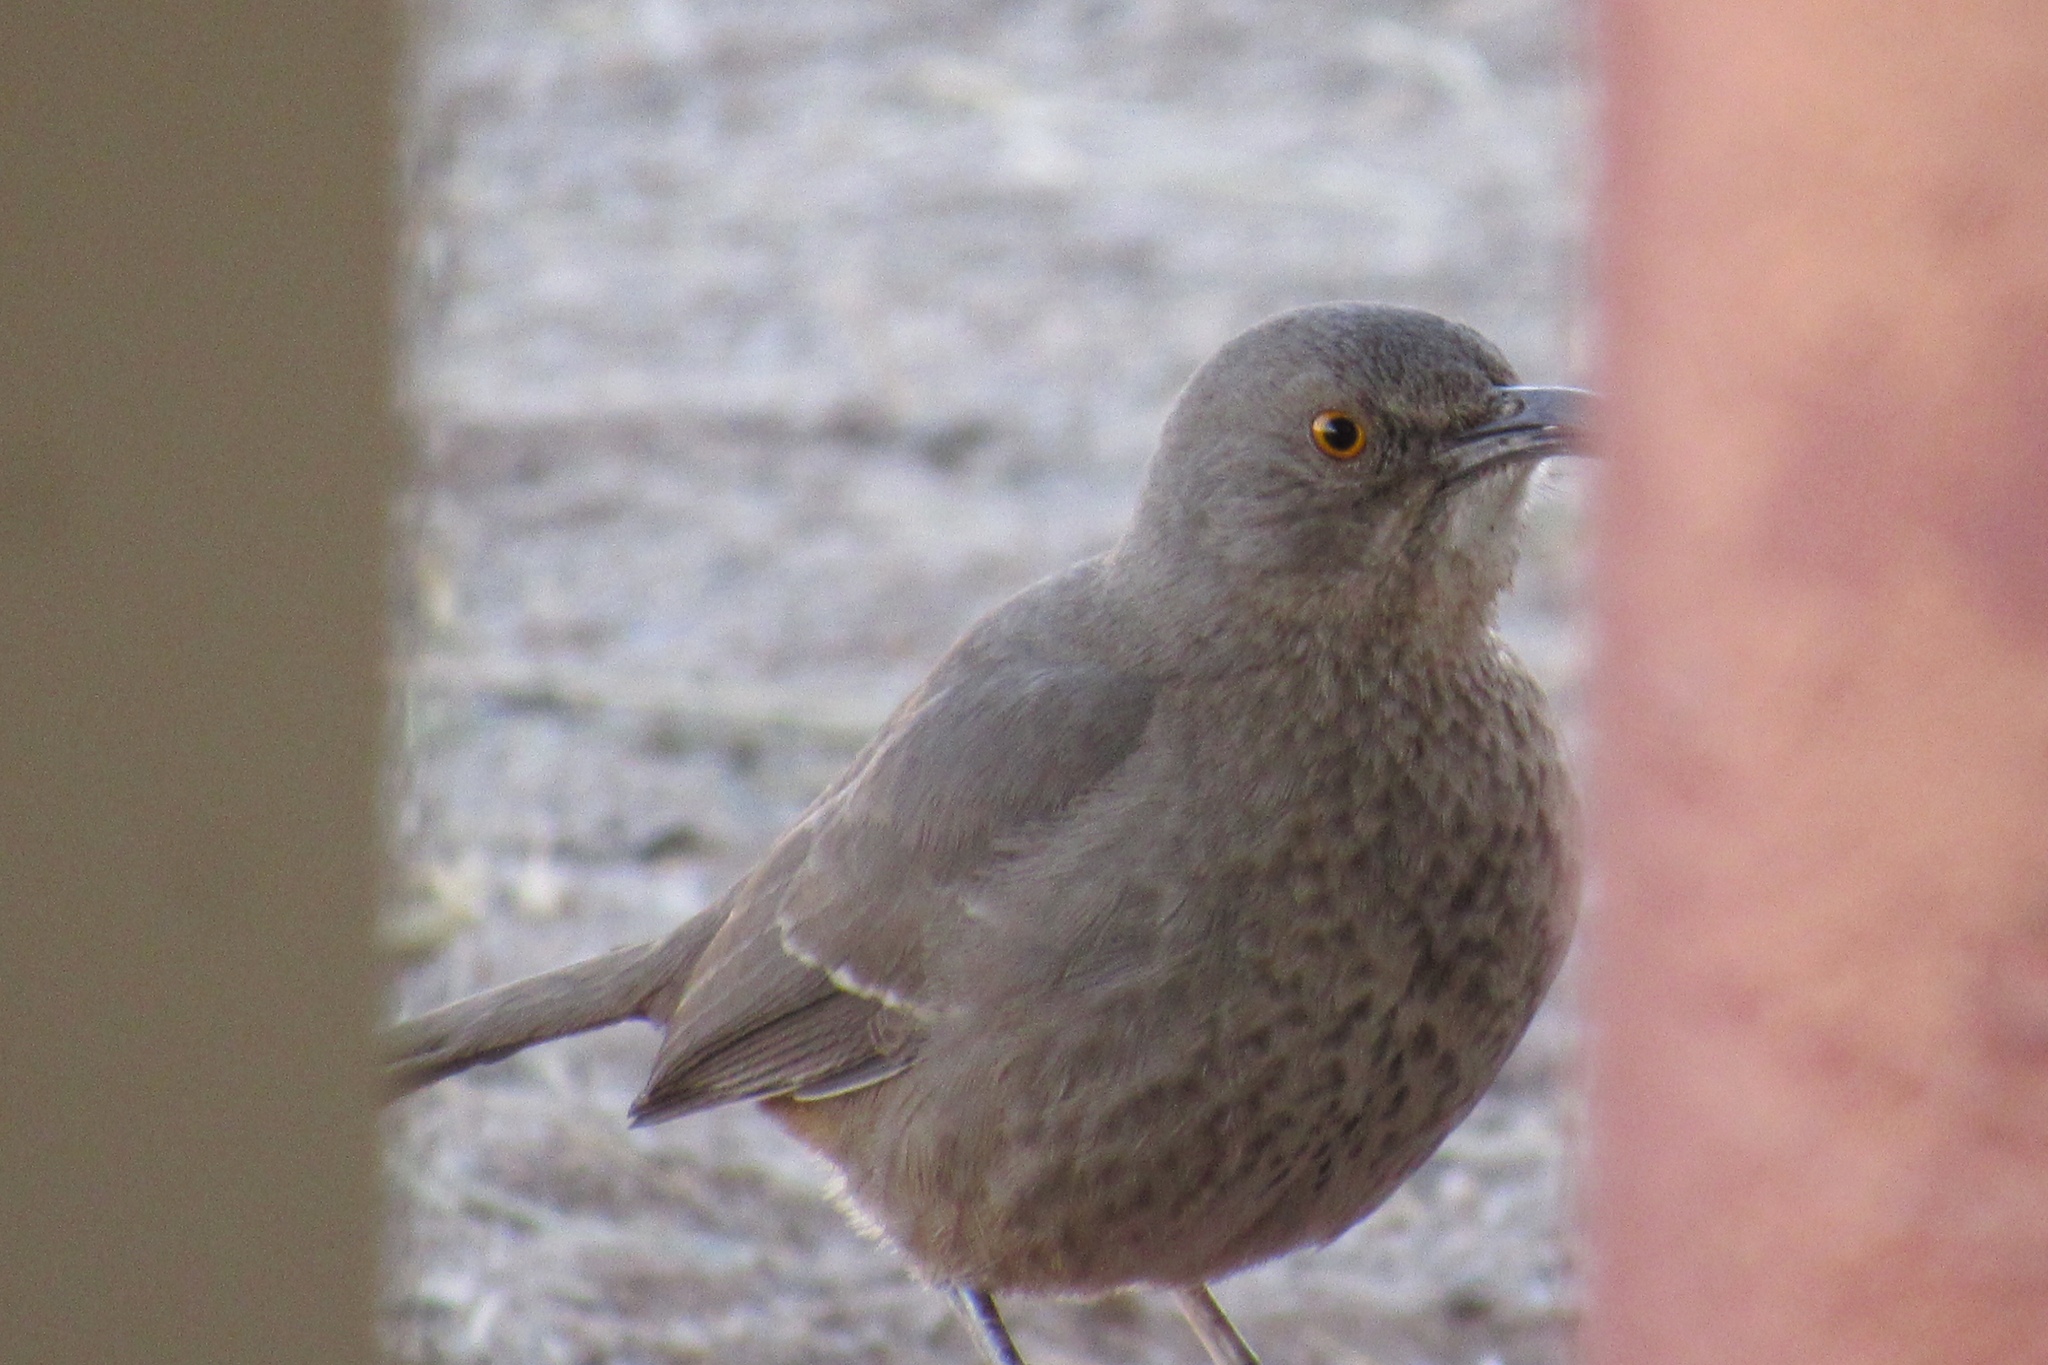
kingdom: Animalia
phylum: Chordata
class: Aves
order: Passeriformes
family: Mimidae
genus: Toxostoma
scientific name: Toxostoma curvirostre
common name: Curve-billed thrasher
